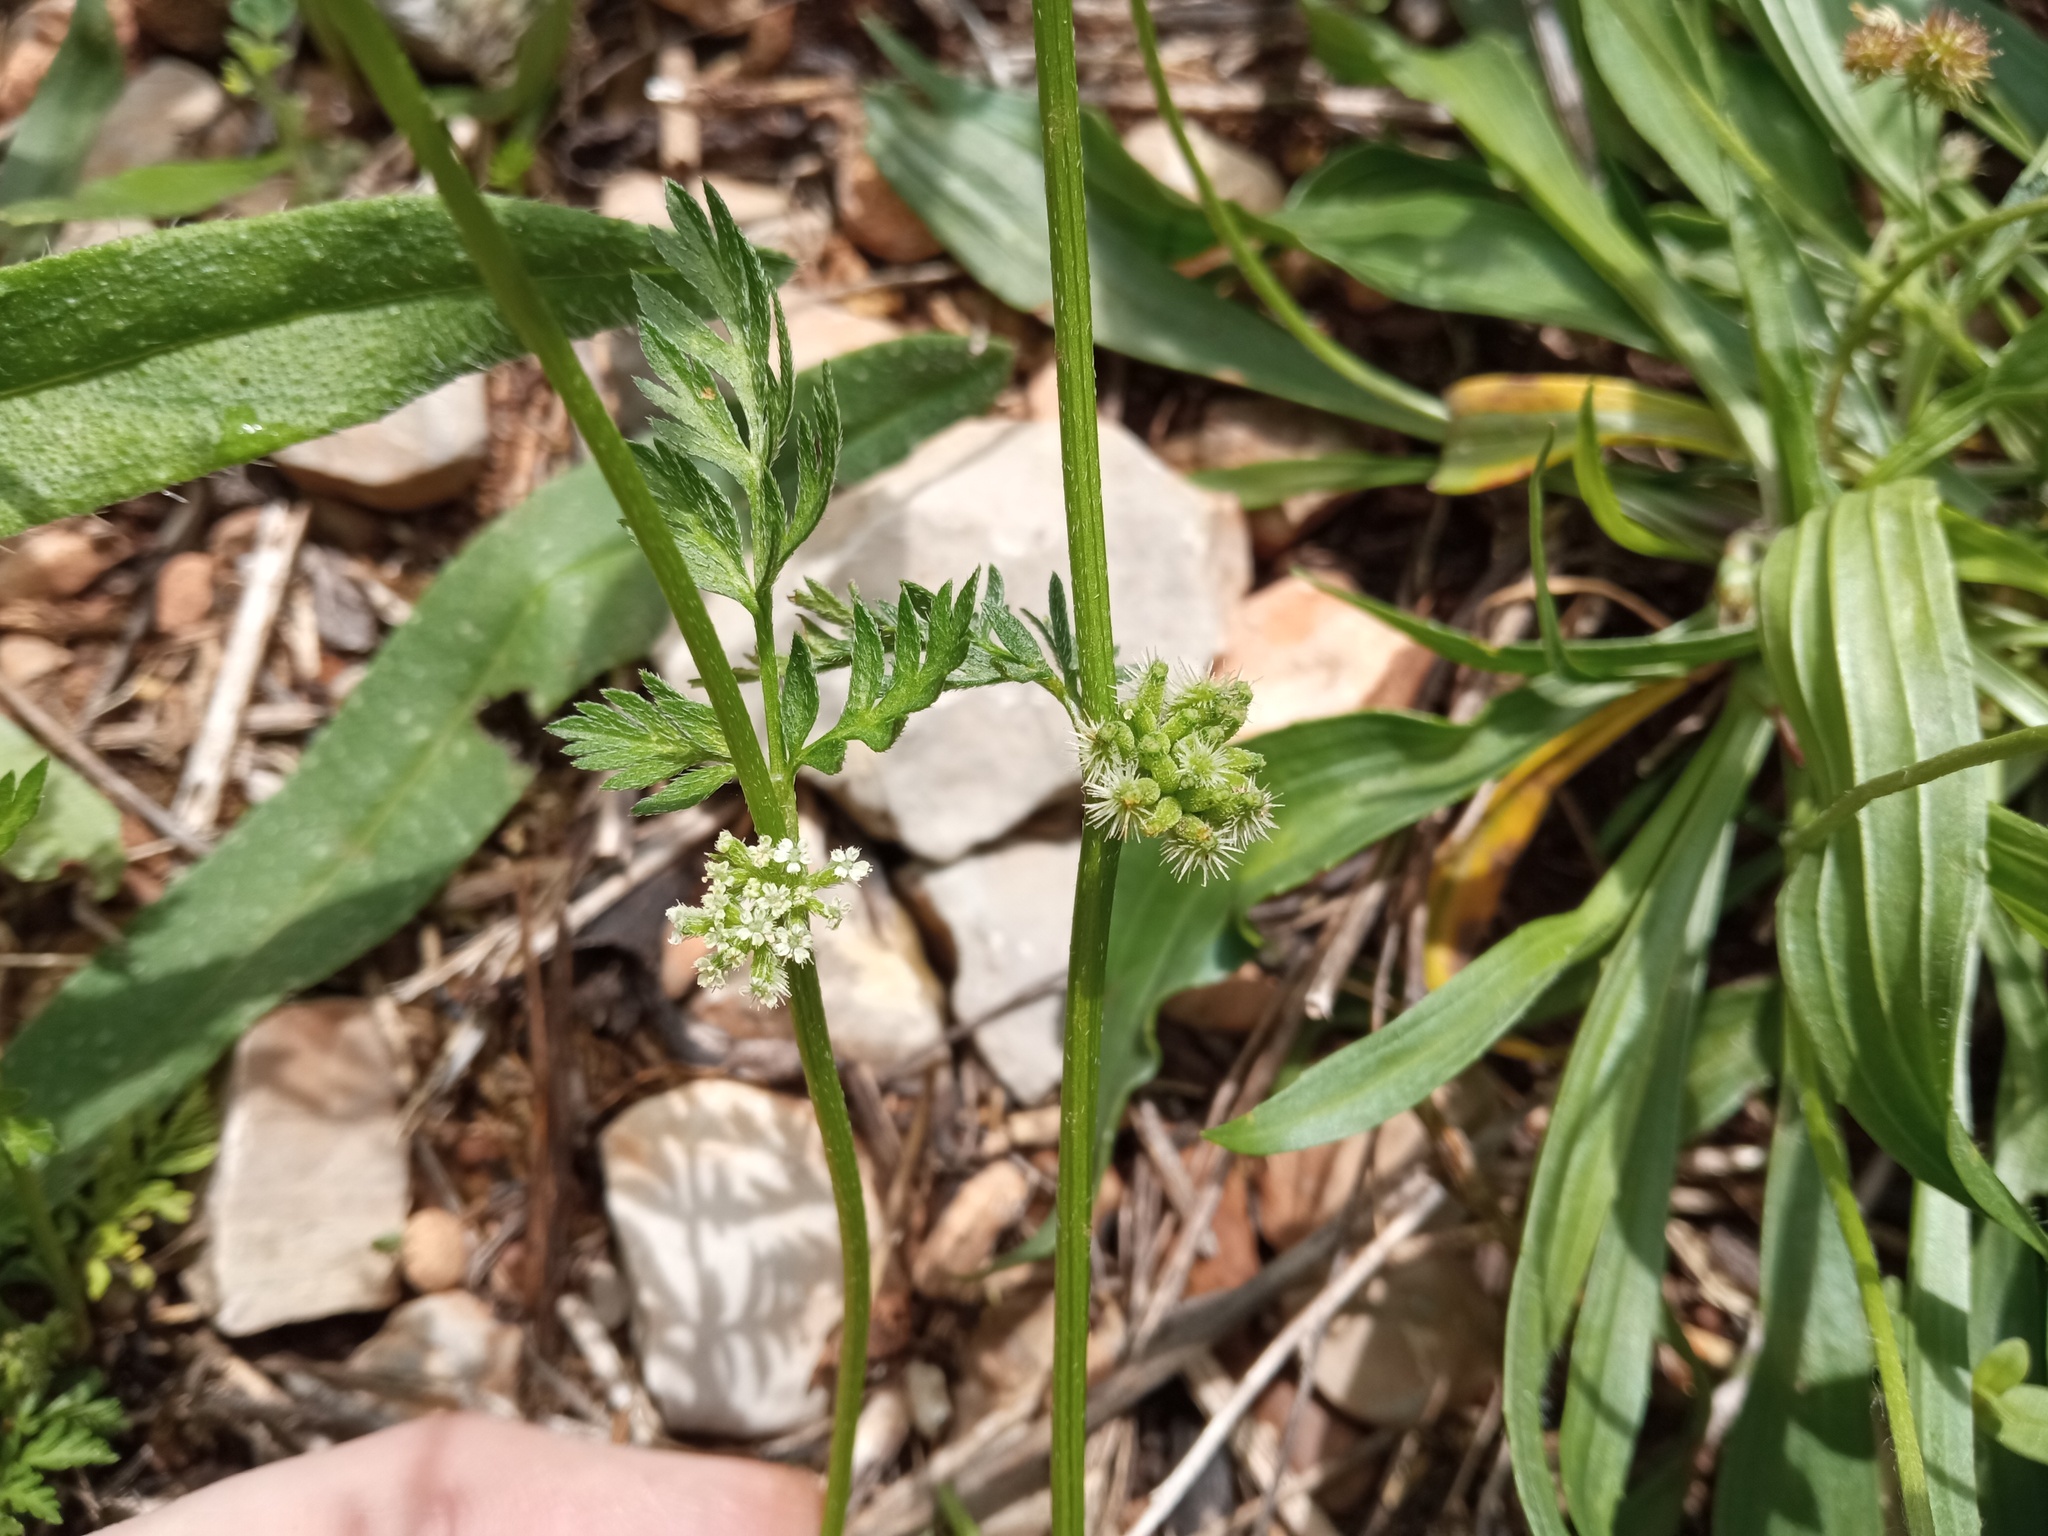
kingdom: Plantae
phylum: Tracheophyta
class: Magnoliopsida
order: Apiales
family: Apiaceae
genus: Torilis
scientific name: Torilis nodosa
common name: Knotted hedge-parsley
